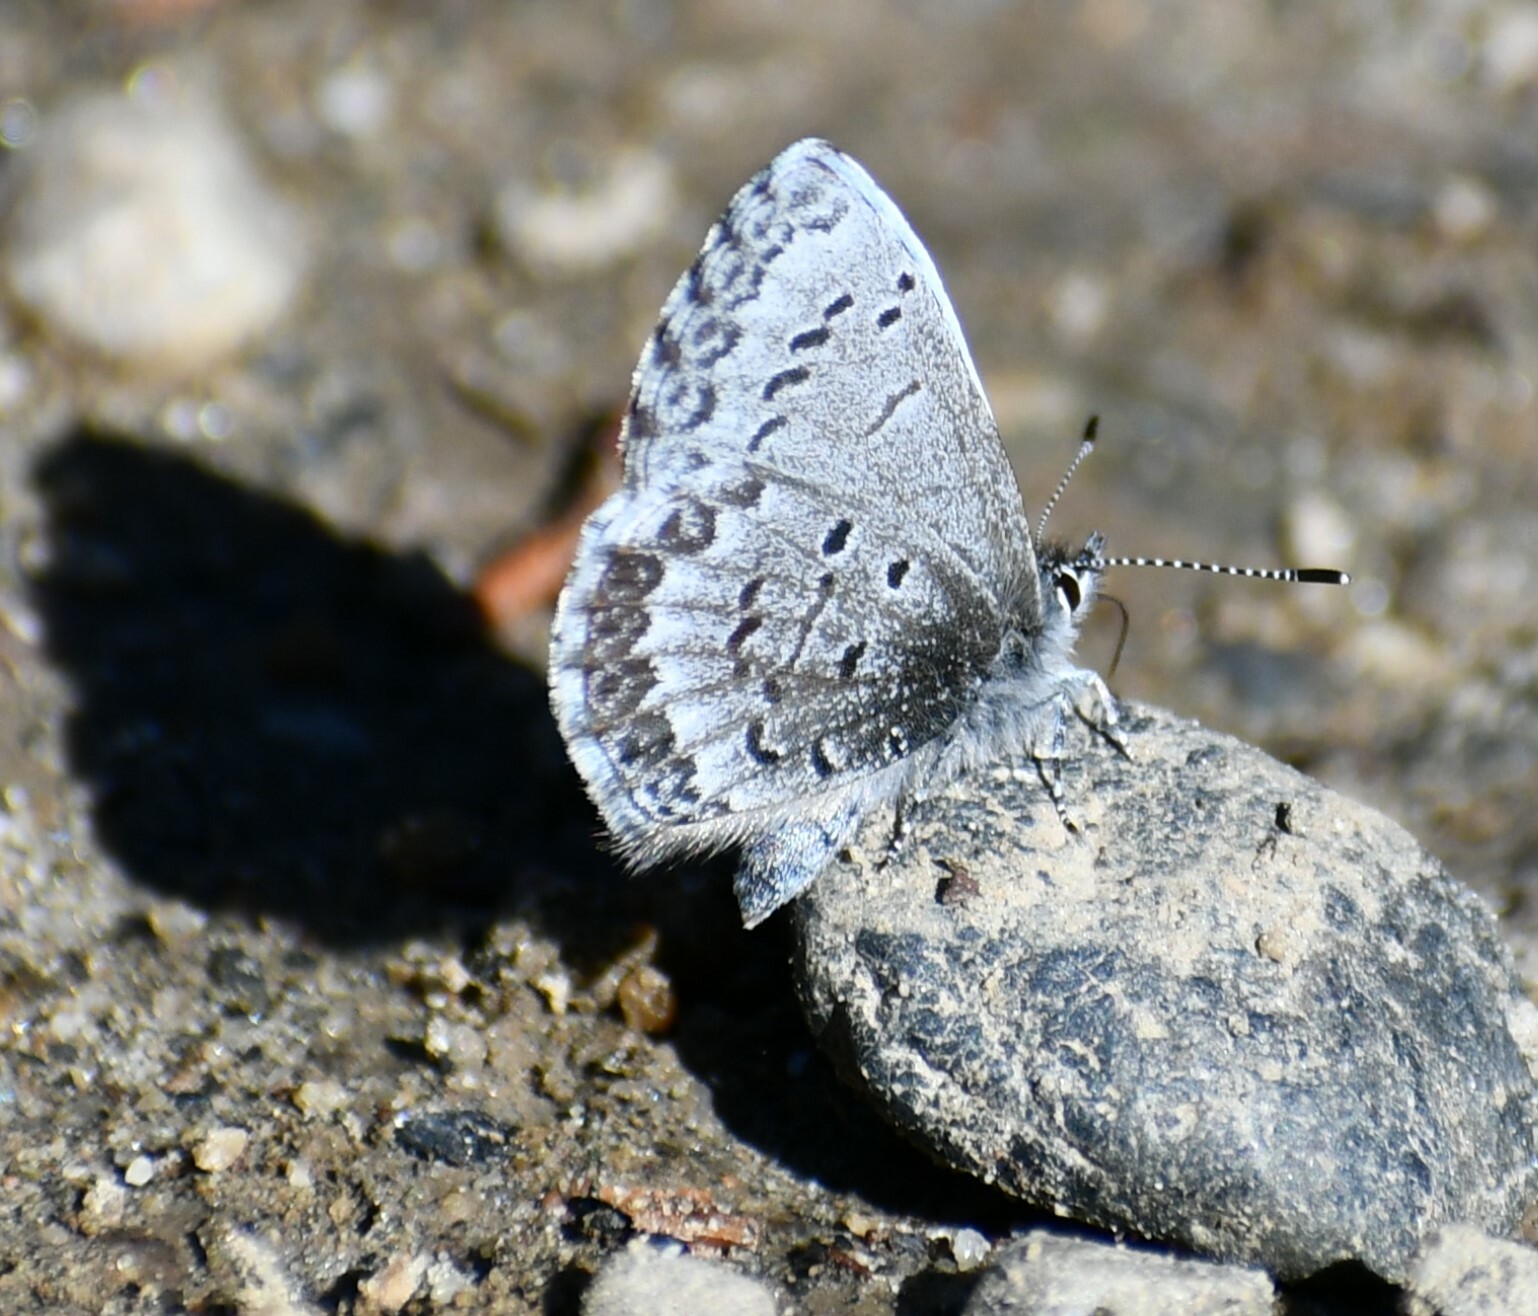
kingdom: Animalia
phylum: Arthropoda
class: Insecta
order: Lepidoptera
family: Lycaenidae
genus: Celastrina
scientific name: Celastrina lucia
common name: Lucia azure
